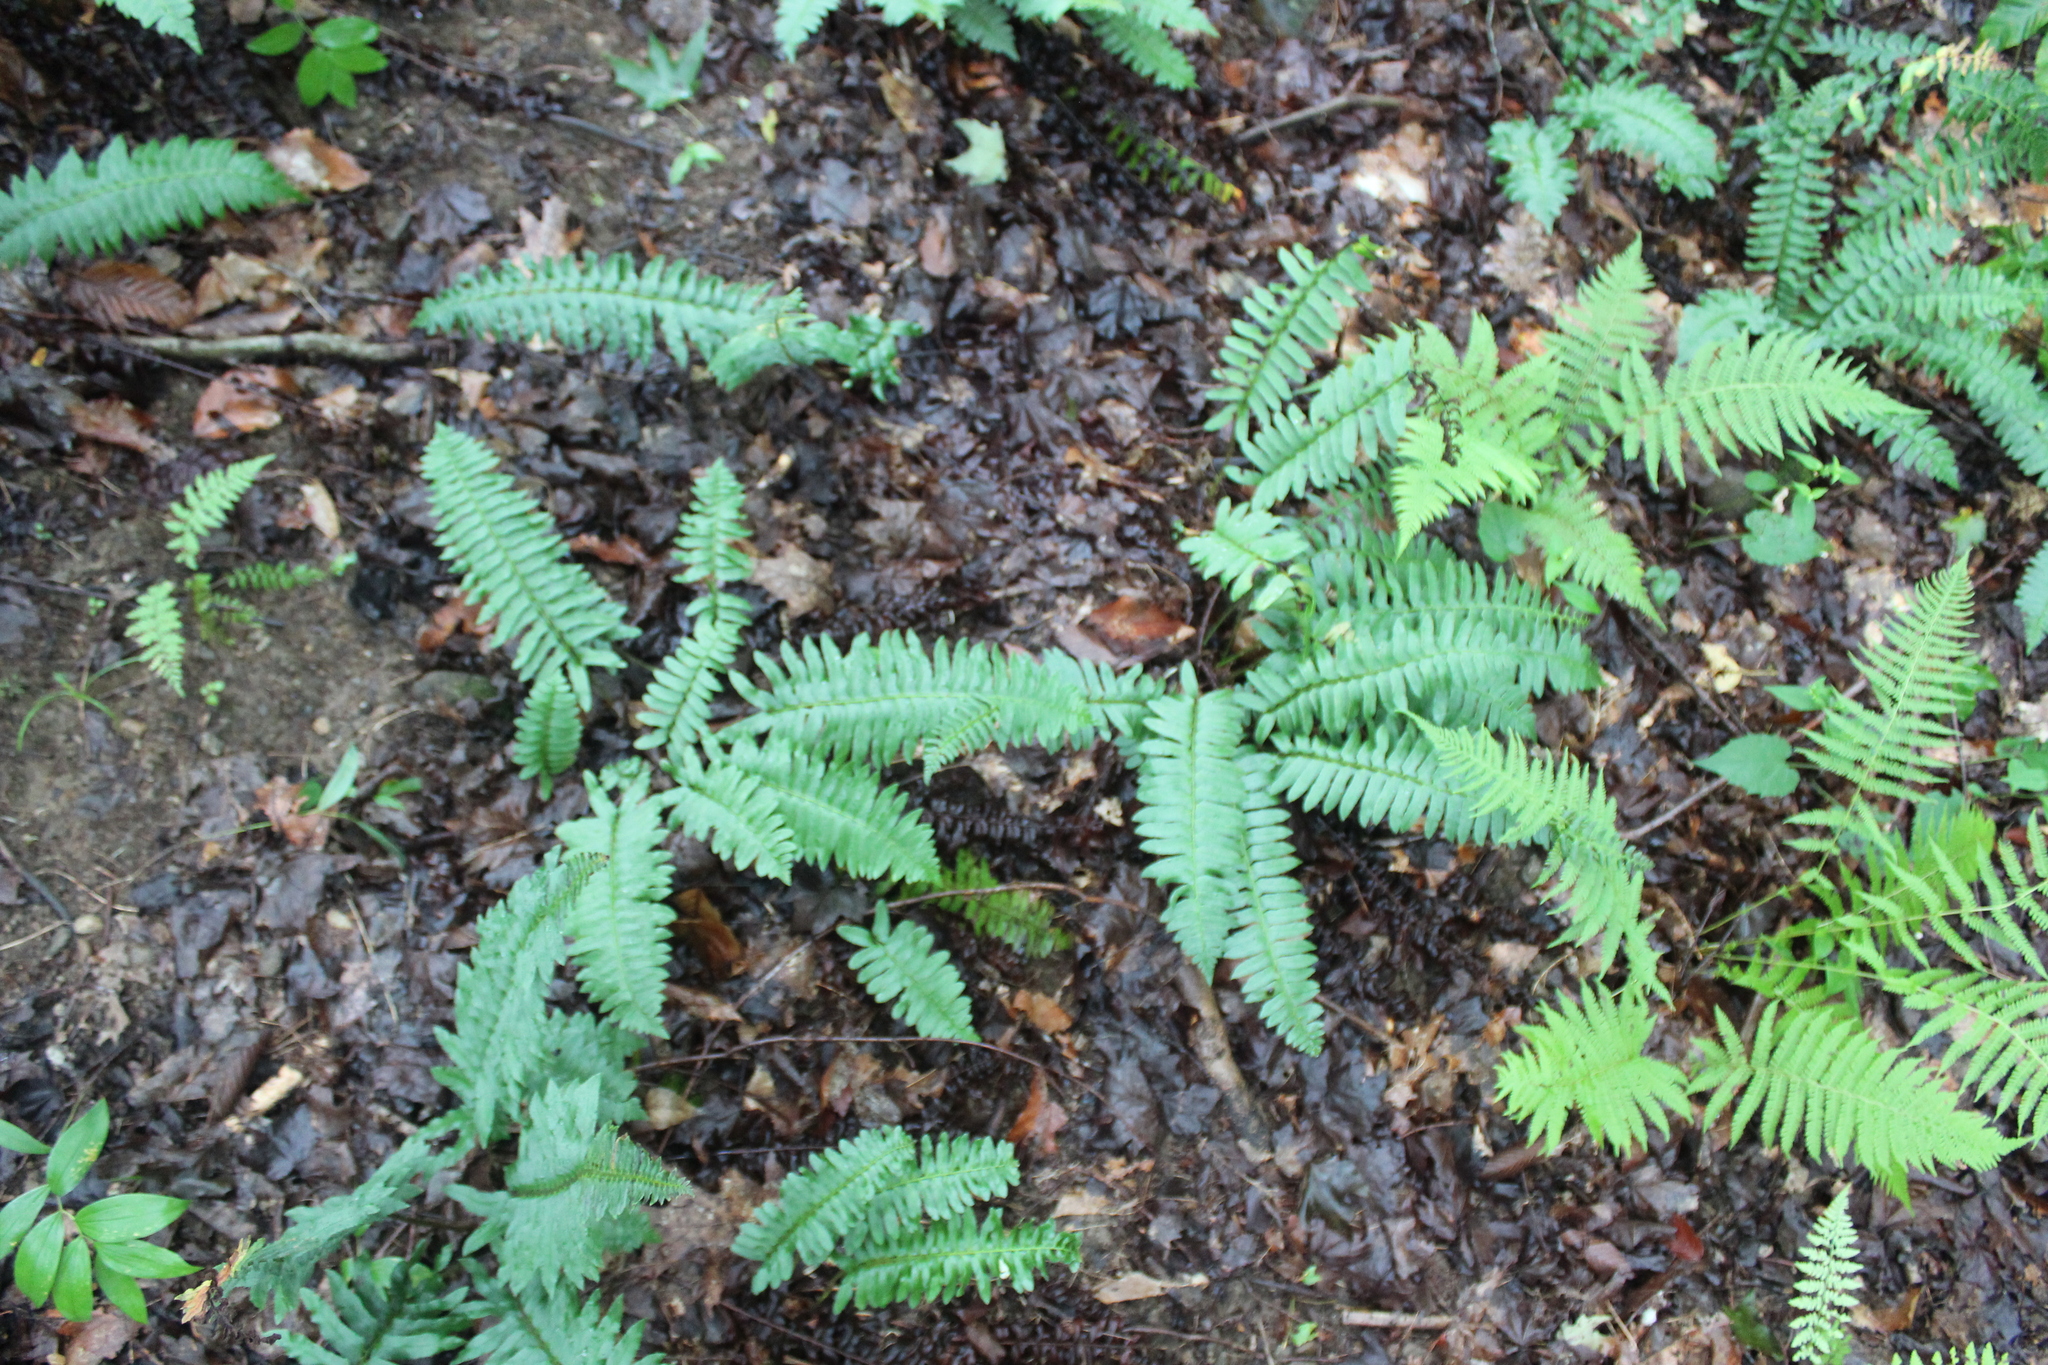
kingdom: Plantae
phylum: Tracheophyta
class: Polypodiopsida
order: Polypodiales
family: Dryopteridaceae
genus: Polystichum
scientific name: Polystichum acrostichoides
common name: Christmas fern
